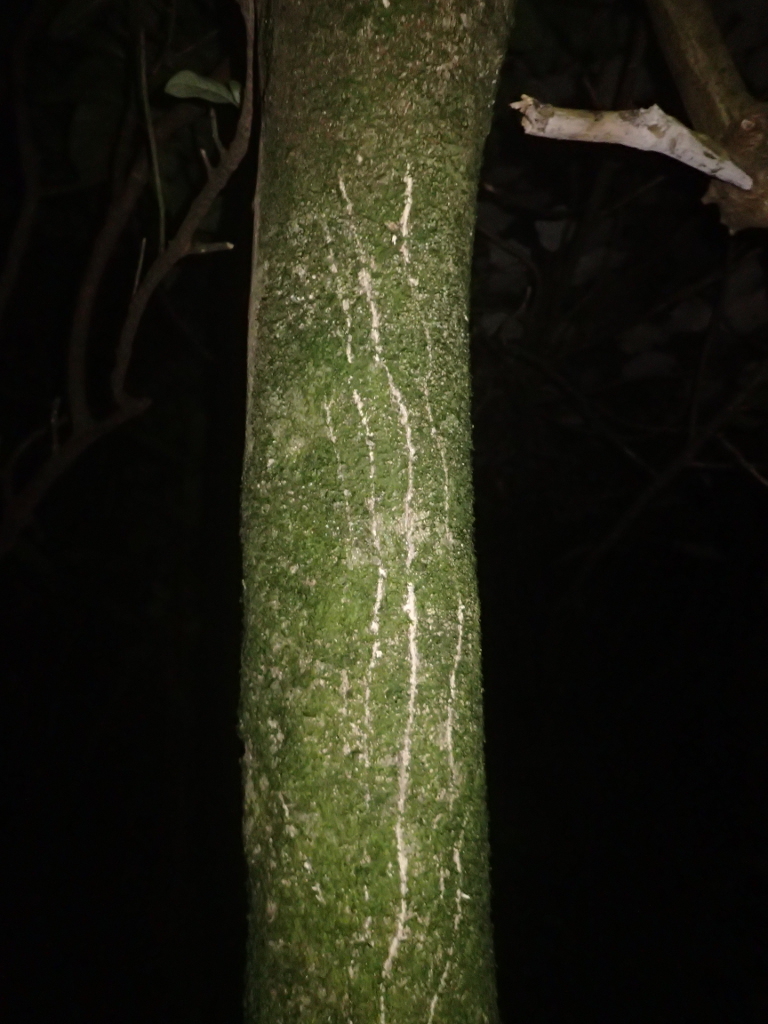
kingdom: Animalia
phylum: Chordata
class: Mammalia
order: Diprotodontia
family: Phalangeridae
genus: Trichosurus
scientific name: Trichosurus vulpecula
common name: Common brushtail
